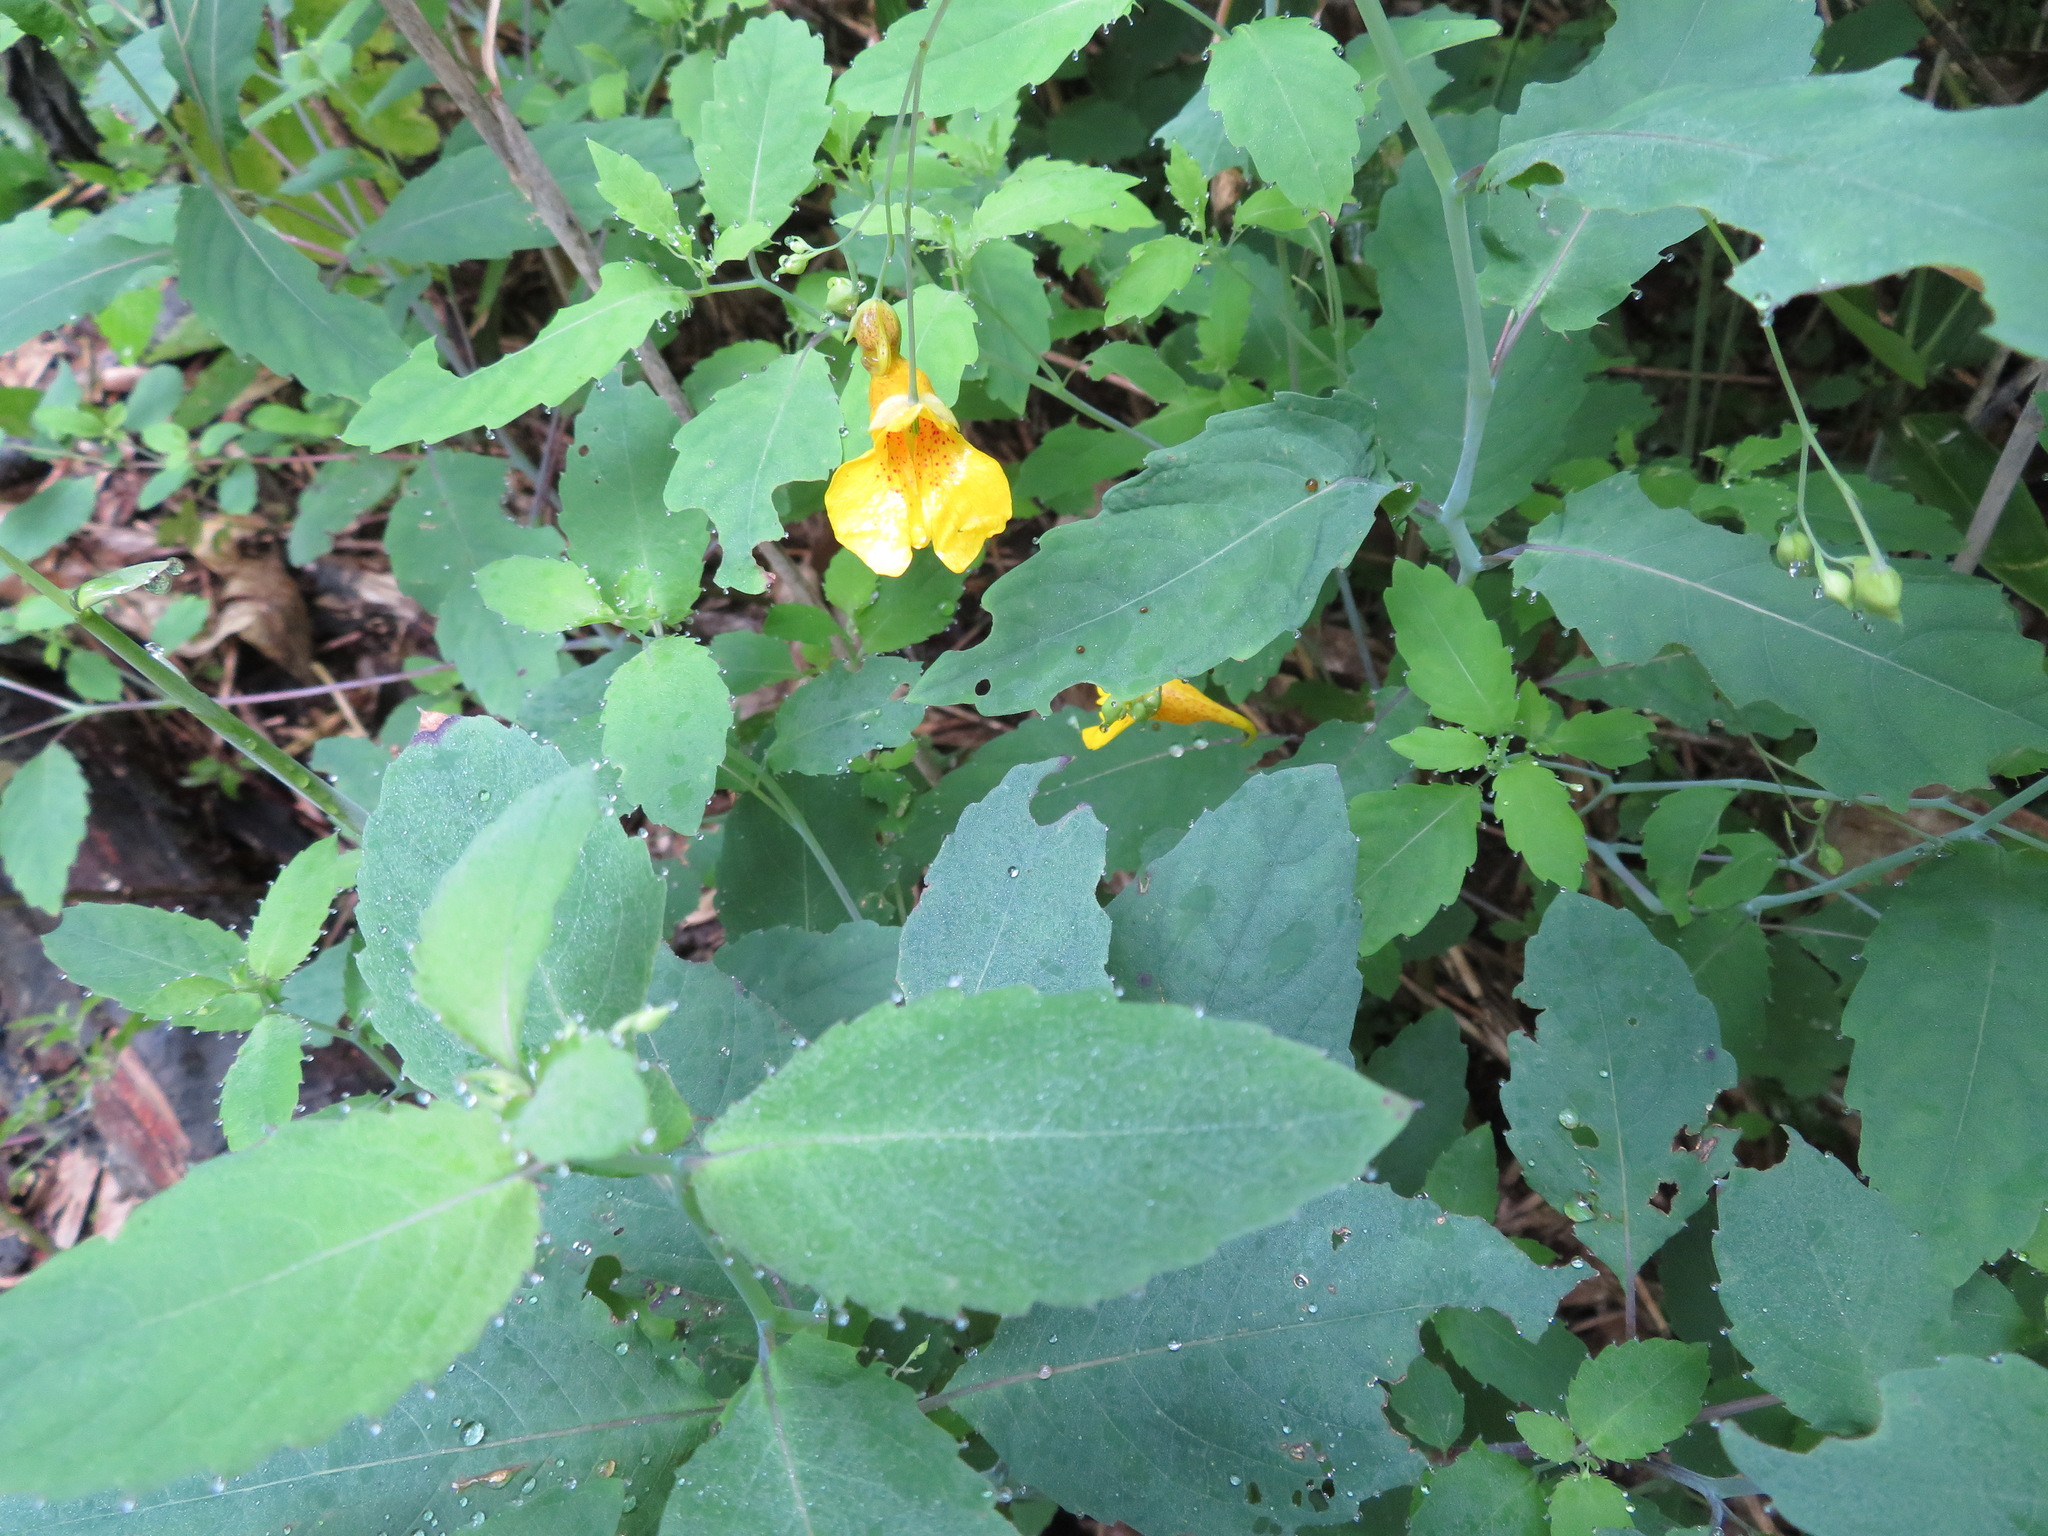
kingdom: Plantae
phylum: Tracheophyta
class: Magnoliopsida
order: Ericales
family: Balsaminaceae
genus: Impatiens
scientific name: Impatiens noli-tangere
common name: Touch-me-not balsam
